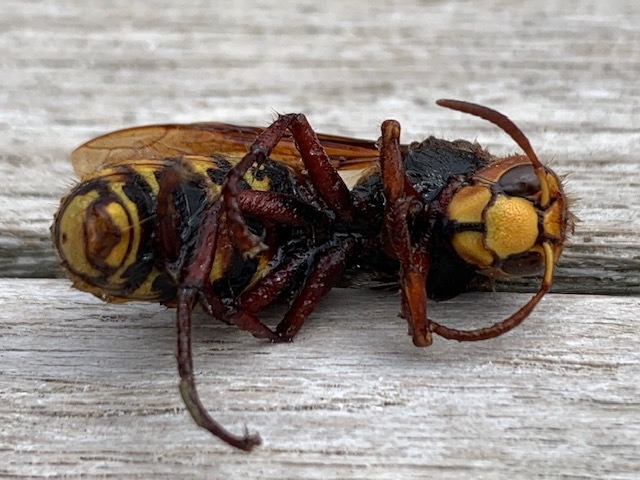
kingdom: Animalia
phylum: Arthropoda
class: Insecta
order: Hymenoptera
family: Vespidae
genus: Vespa
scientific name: Vespa crabro
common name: Hornet
